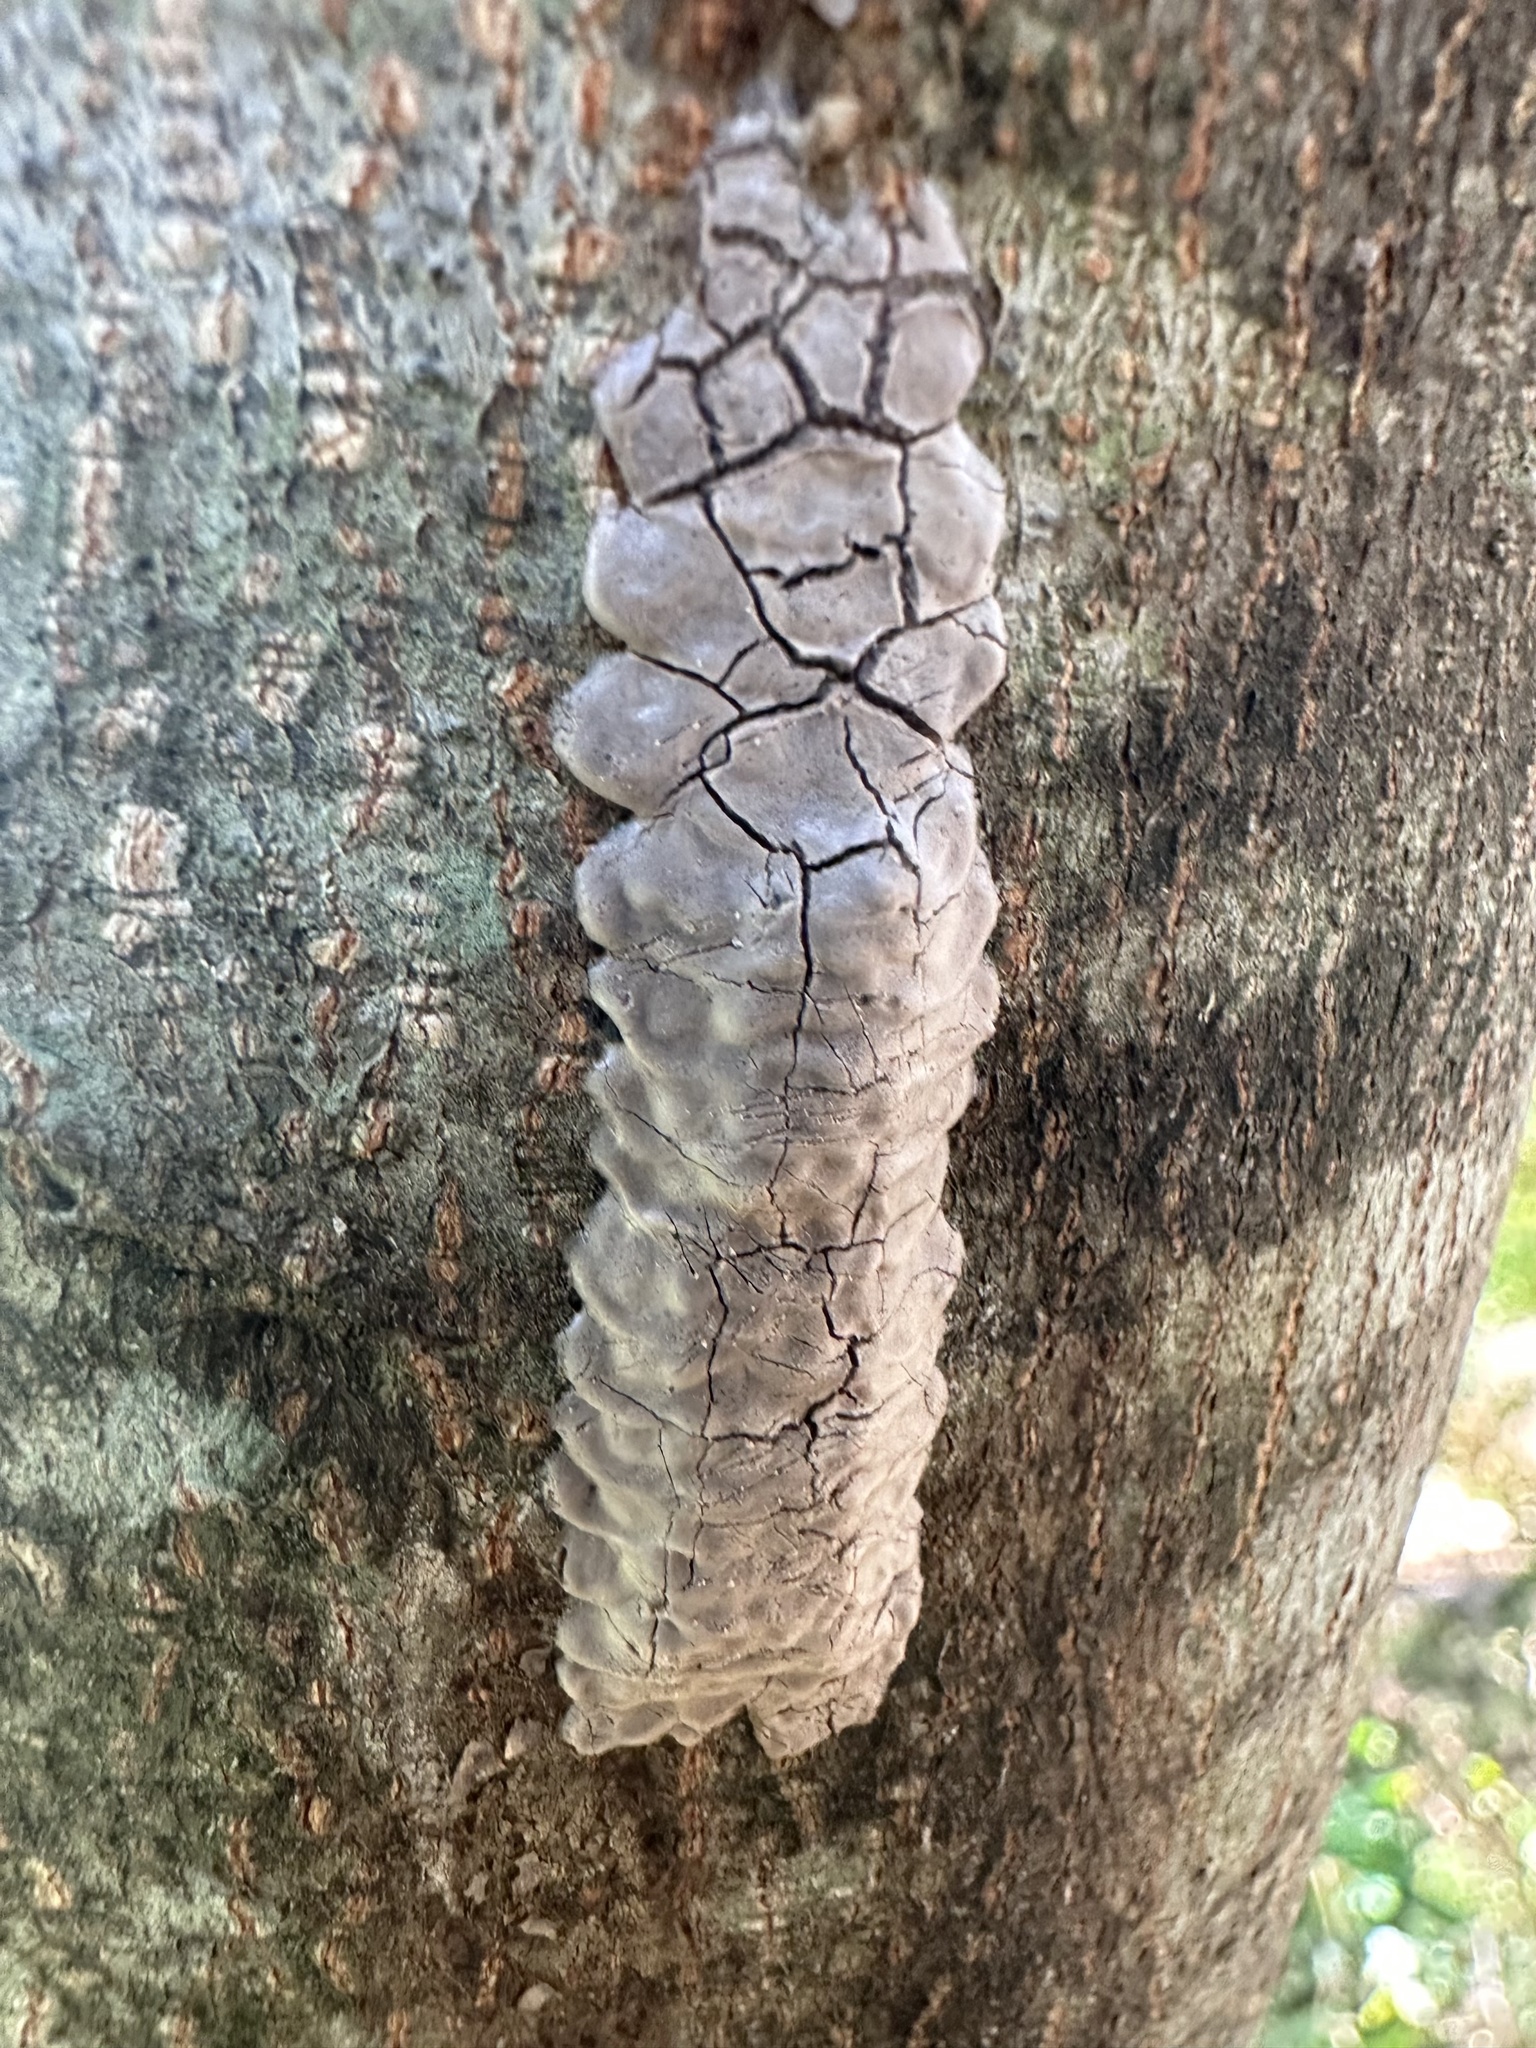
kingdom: Animalia
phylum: Arthropoda
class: Insecta
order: Hemiptera
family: Fulgoridae
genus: Lycorma
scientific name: Lycorma delicatula
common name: Spotted lanternfly
